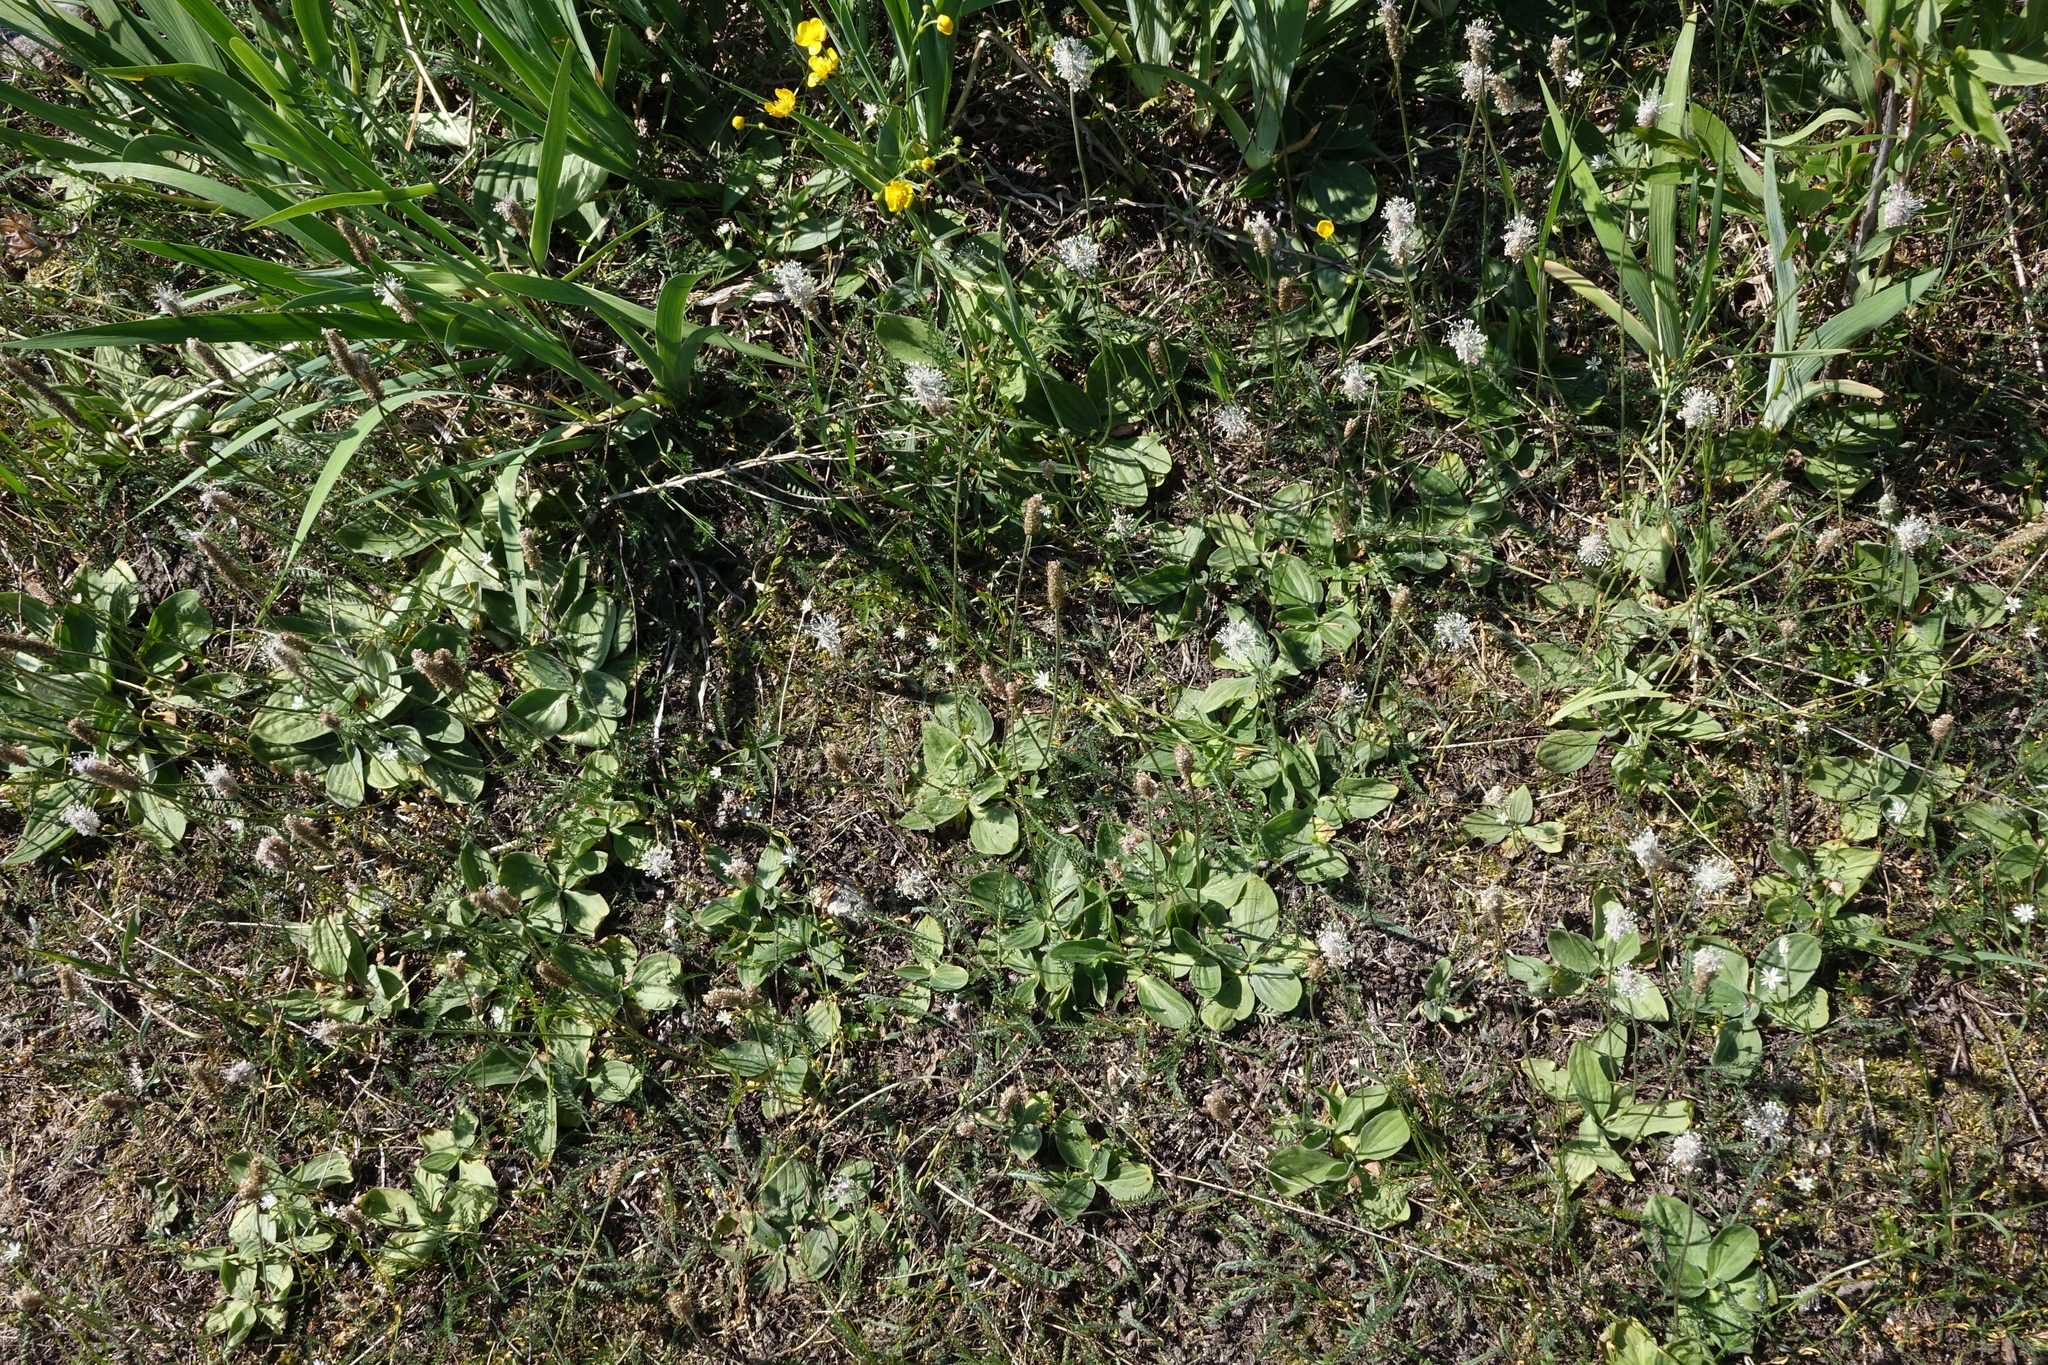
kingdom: Plantae
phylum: Tracheophyta
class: Magnoliopsida
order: Lamiales
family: Plantaginaceae
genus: Plantago
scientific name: Plantago media
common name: Hoary plantain
